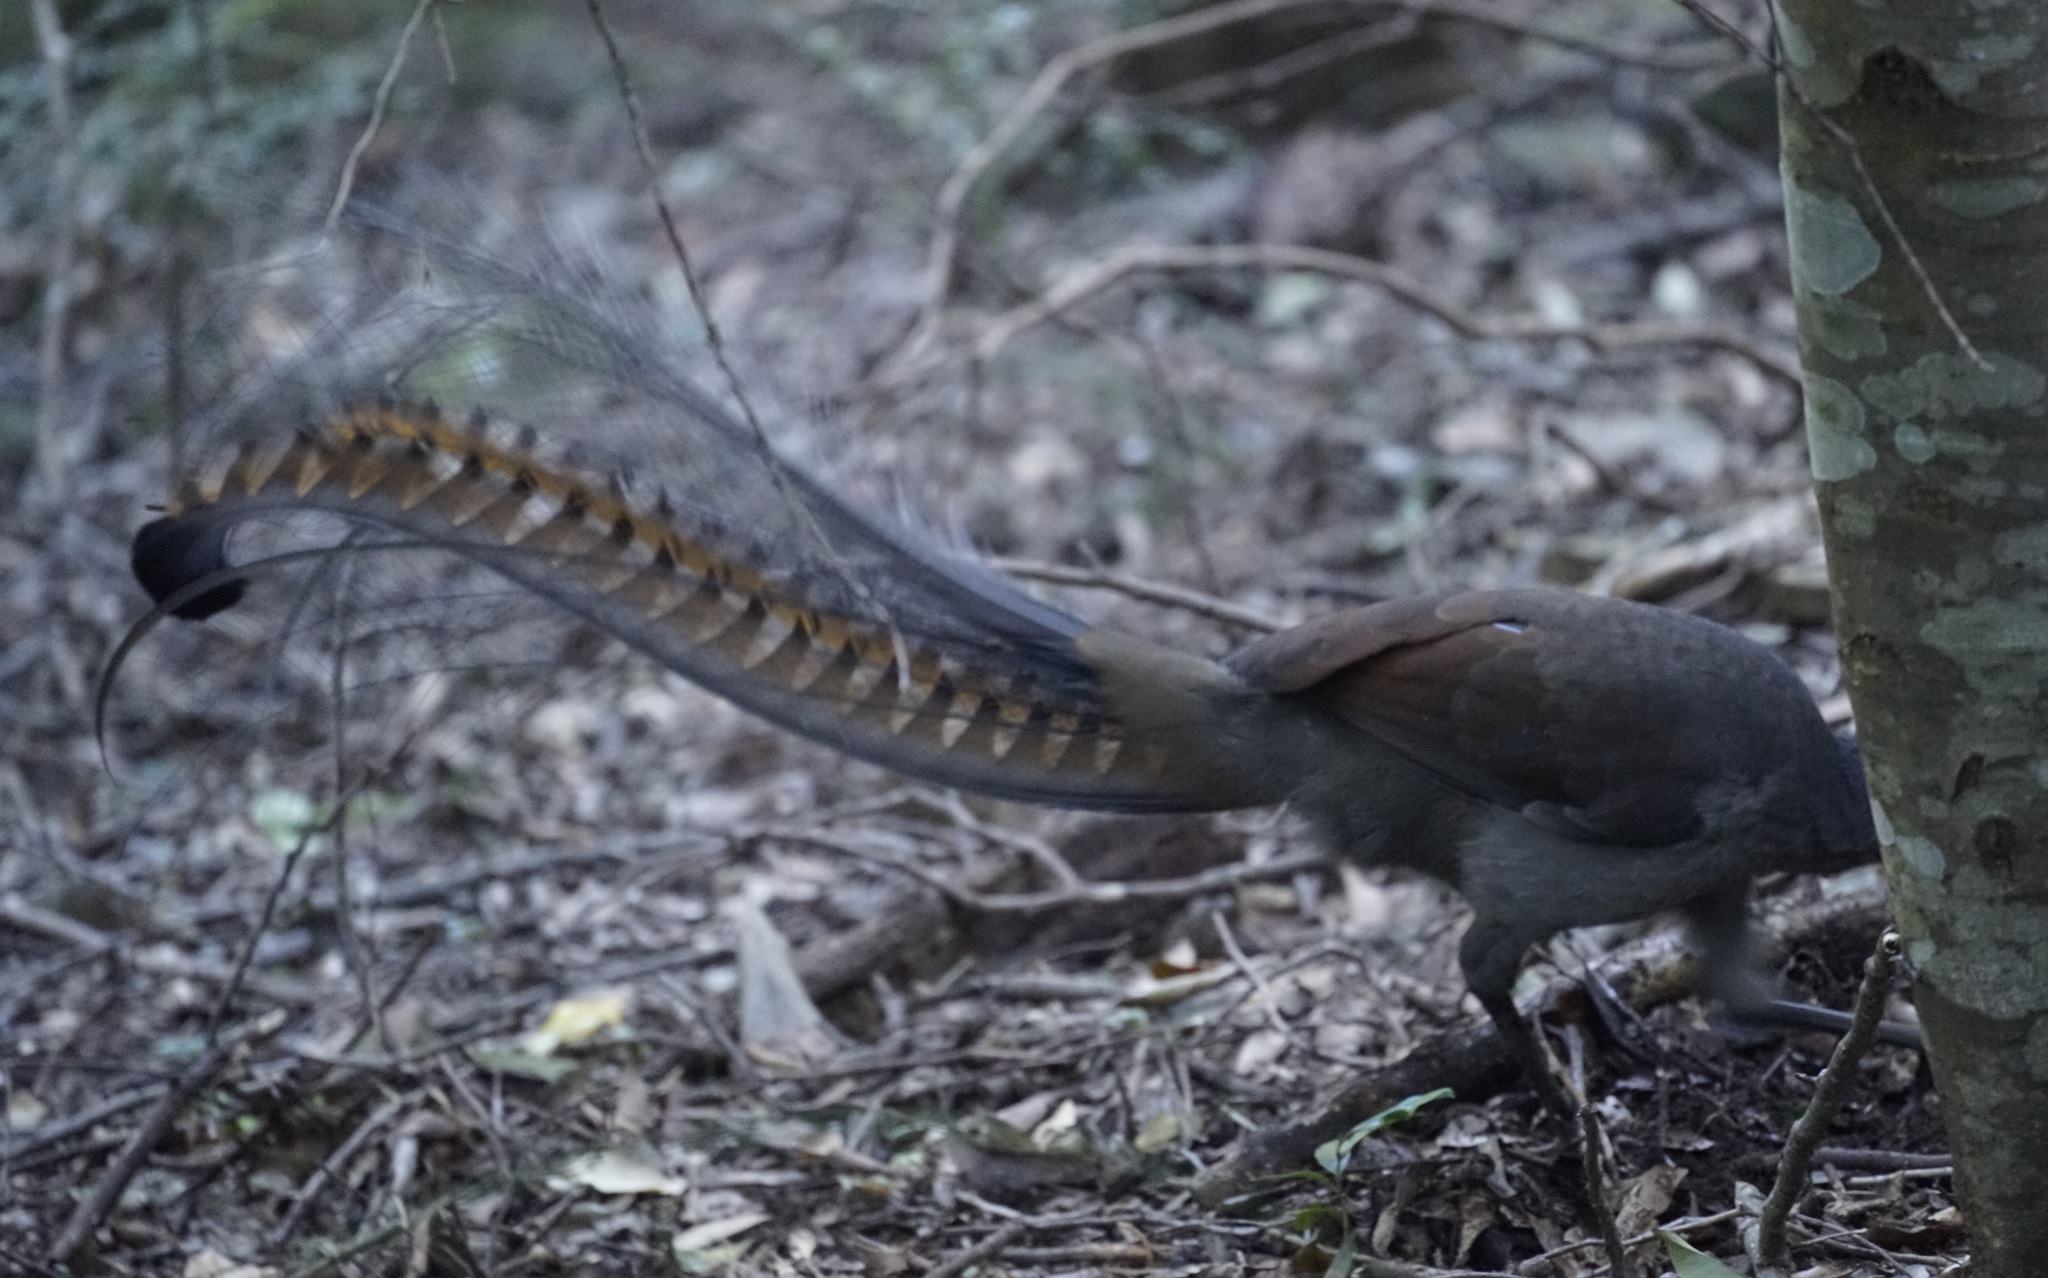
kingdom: Animalia
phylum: Chordata
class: Aves
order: Passeriformes
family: Menuridae
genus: Menura
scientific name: Menura novaehollandiae
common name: Superb lyrebird
